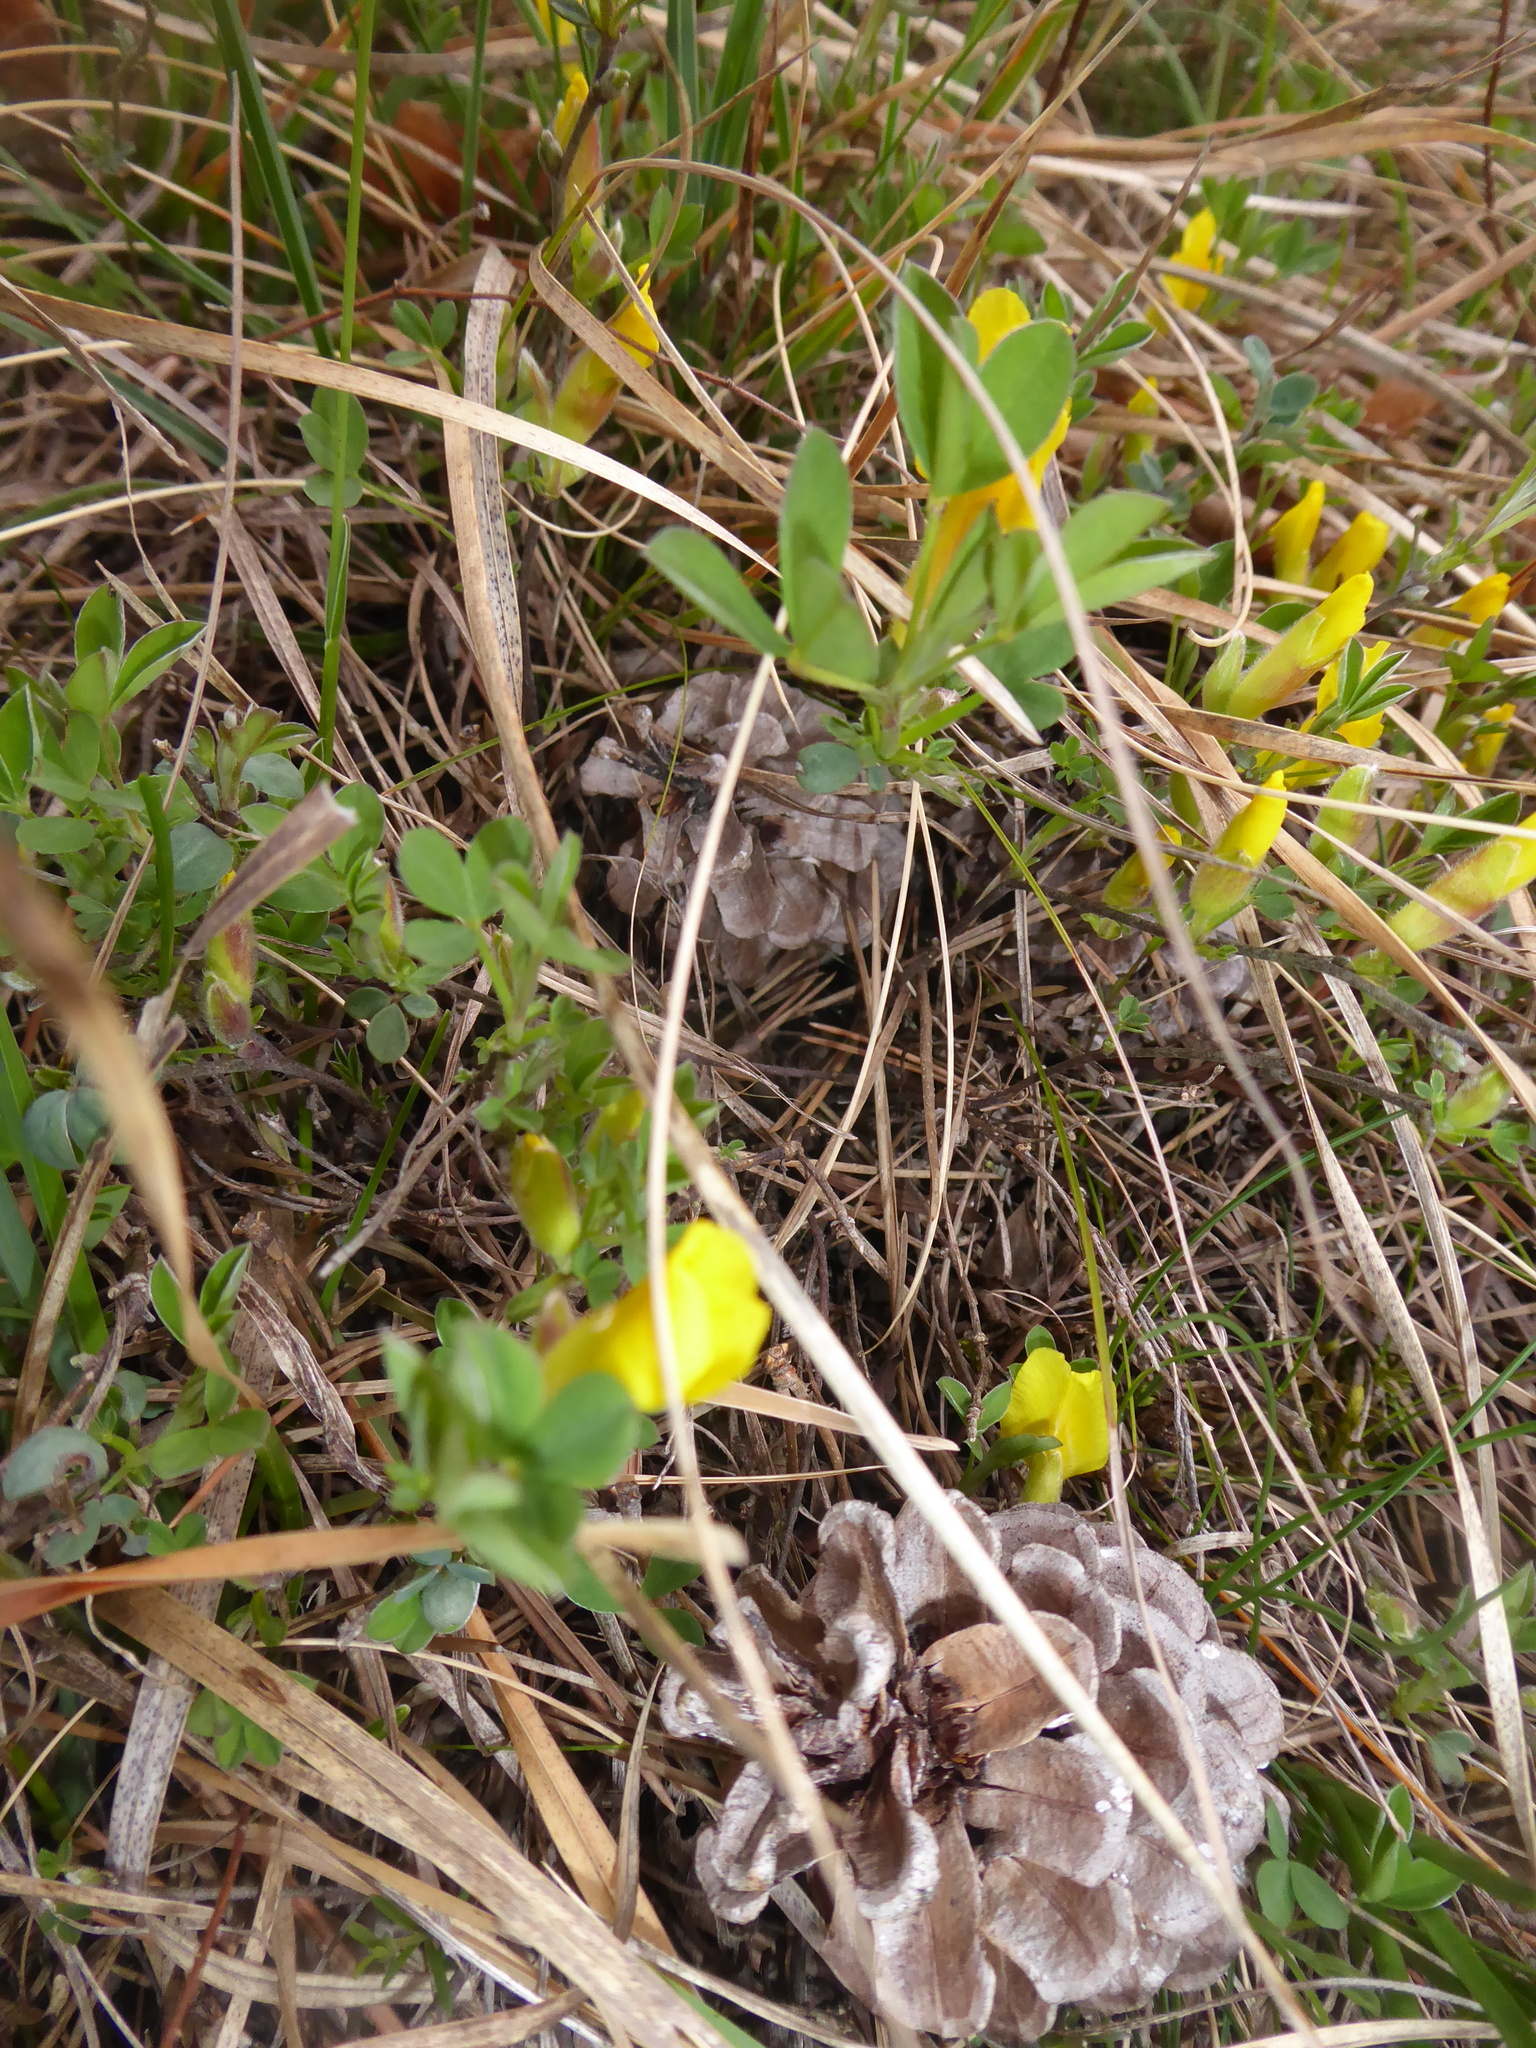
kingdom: Plantae
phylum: Tracheophyta
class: Magnoliopsida
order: Fabales
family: Fabaceae
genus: Chamaecytisus
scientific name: Chamaecytisus ratisbonensis
